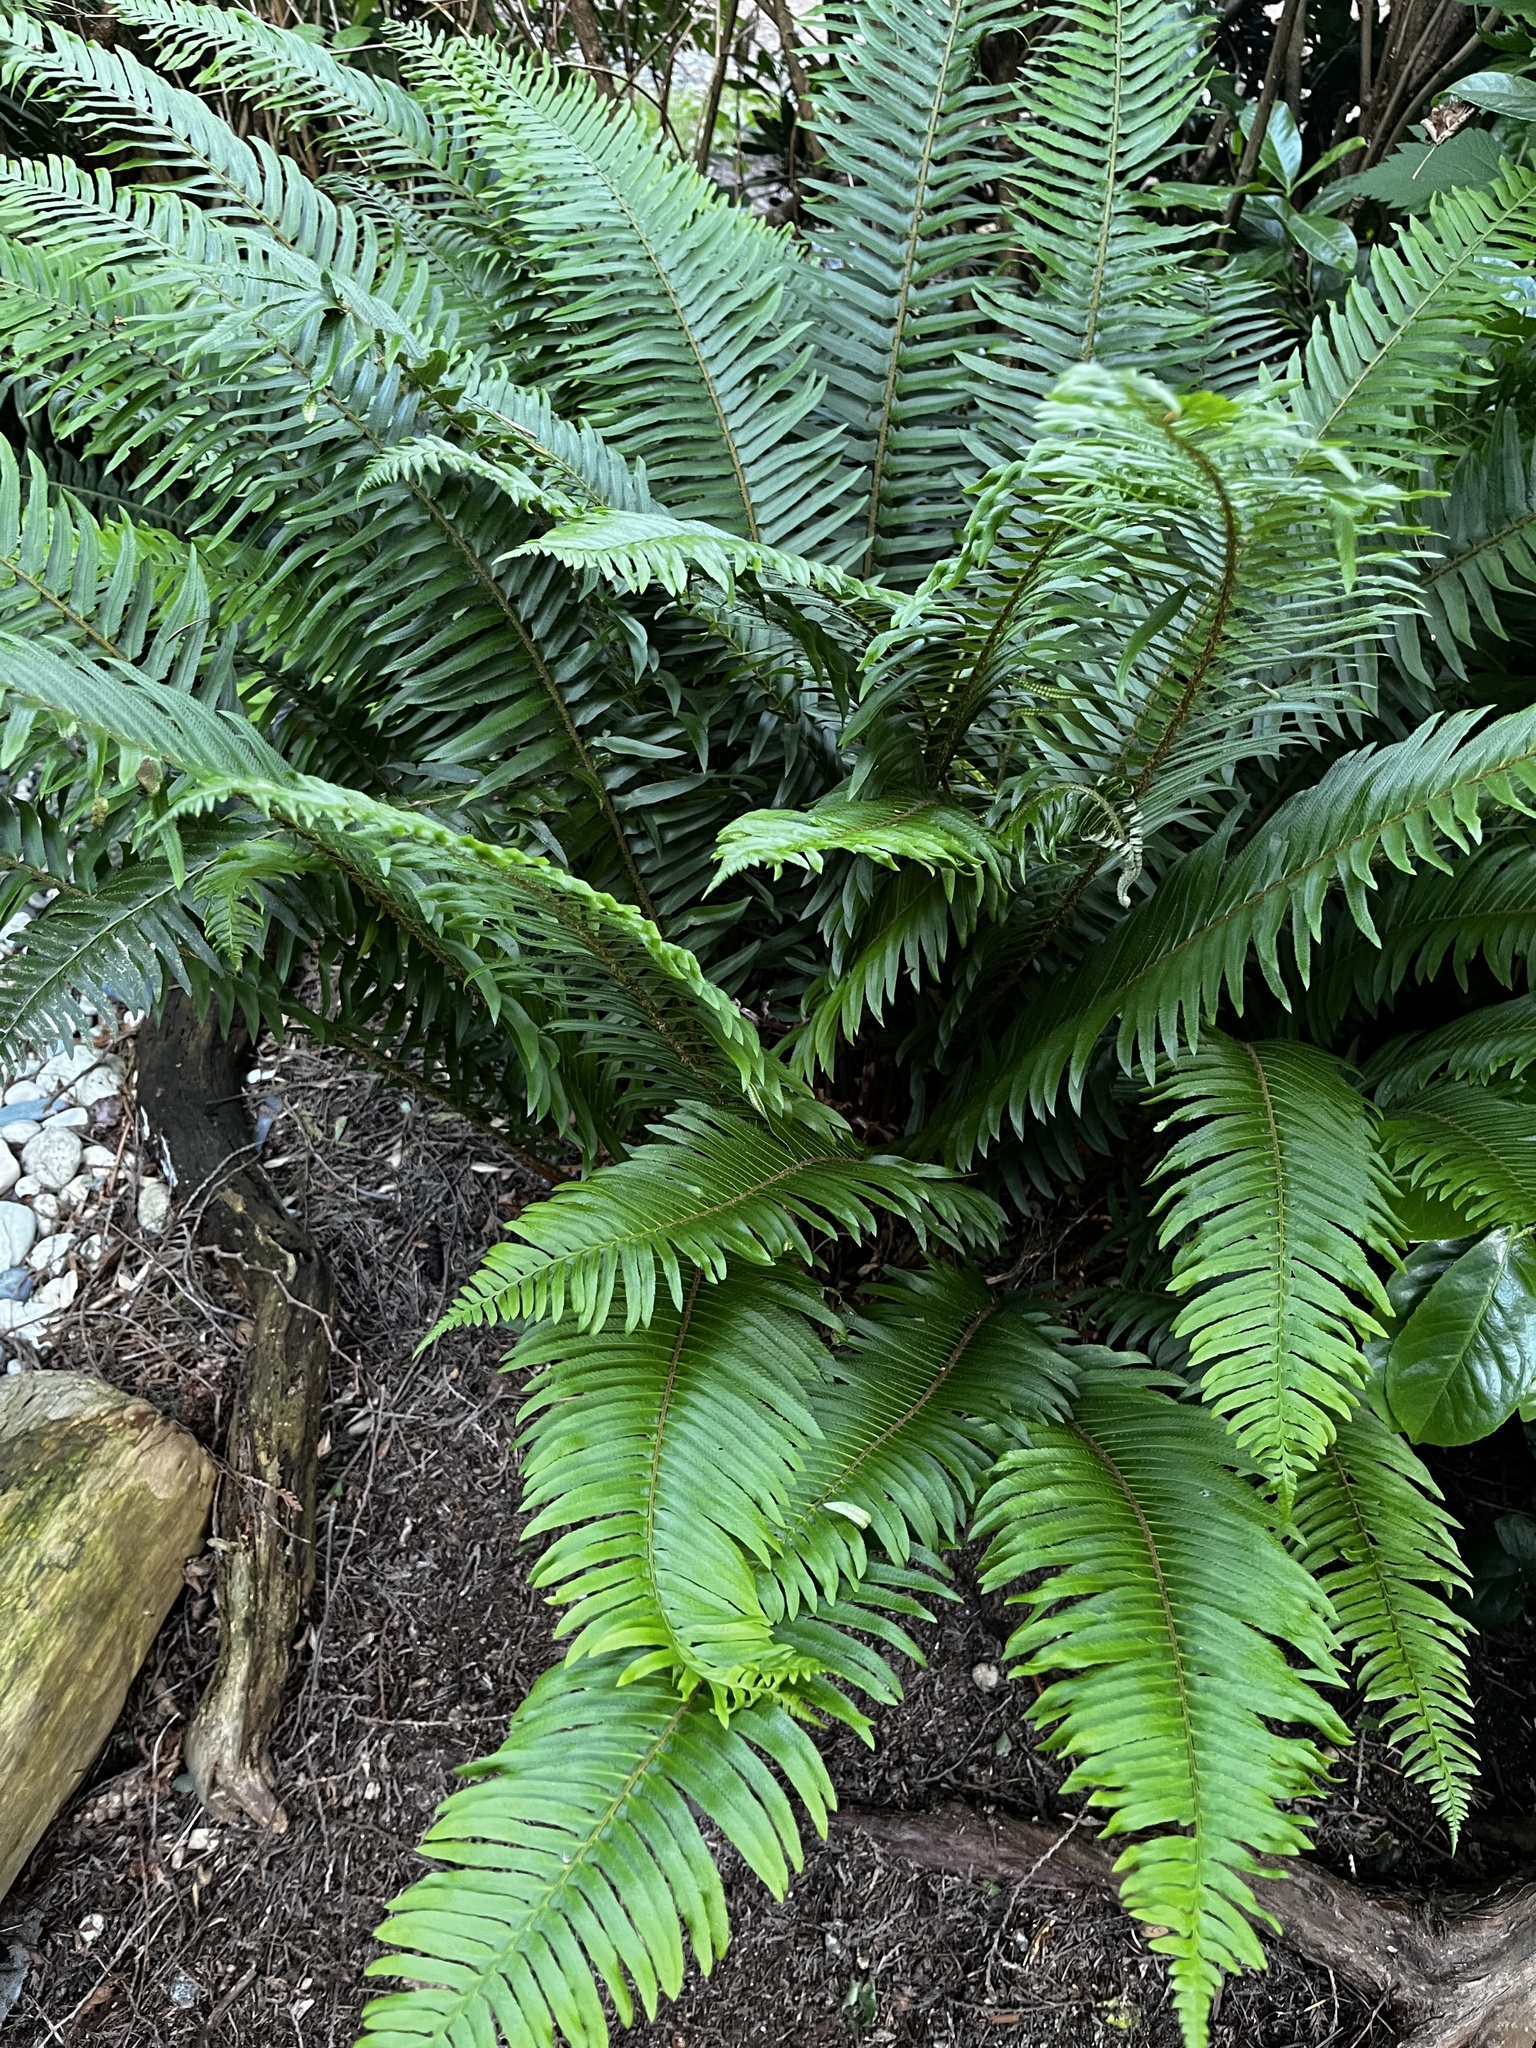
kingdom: Plantae
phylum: Tracheophyta
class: Polypodiopsida
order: Polypodiales
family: Dryopteridaceae
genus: Polystichum
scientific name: Polystichum munitum
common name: Western sword-fern
